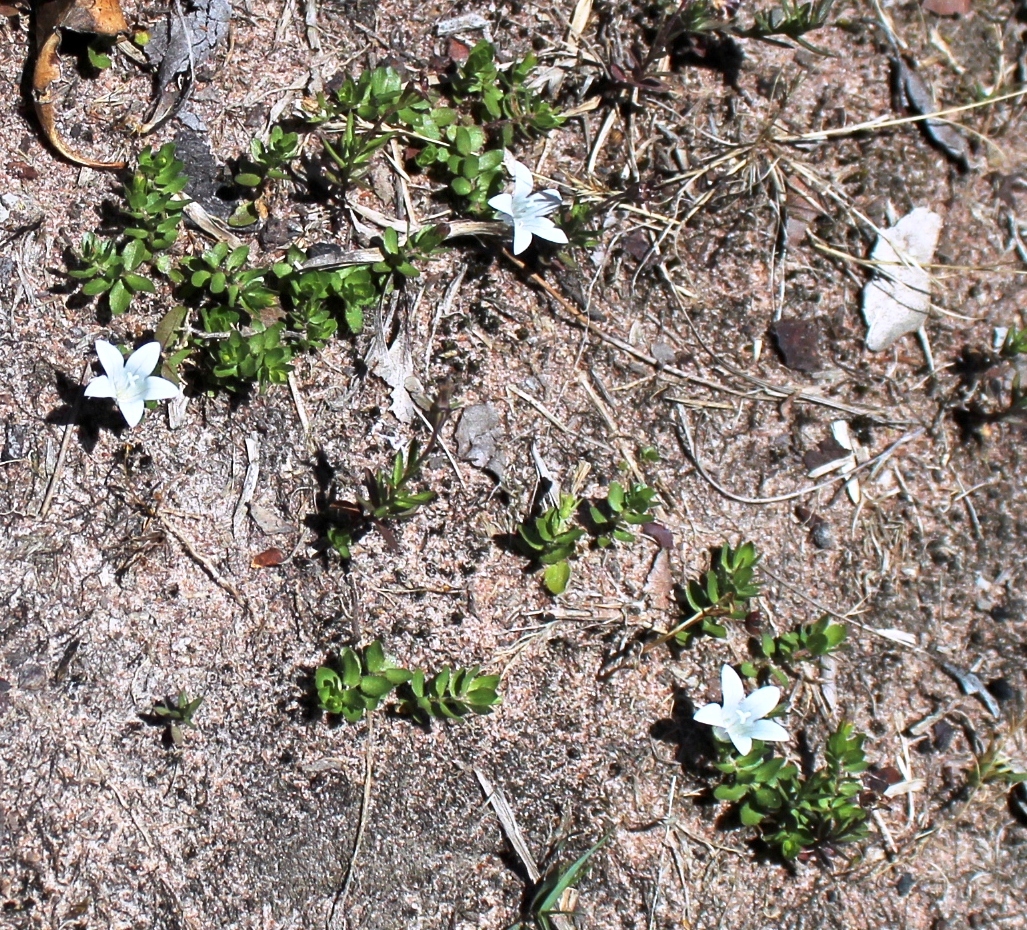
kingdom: Plantae
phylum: Tracheophyta
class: Magnoliopsida
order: Asterales
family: Campanulaceae
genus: Wahlenbergia
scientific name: Wahlenbergia procumbens
